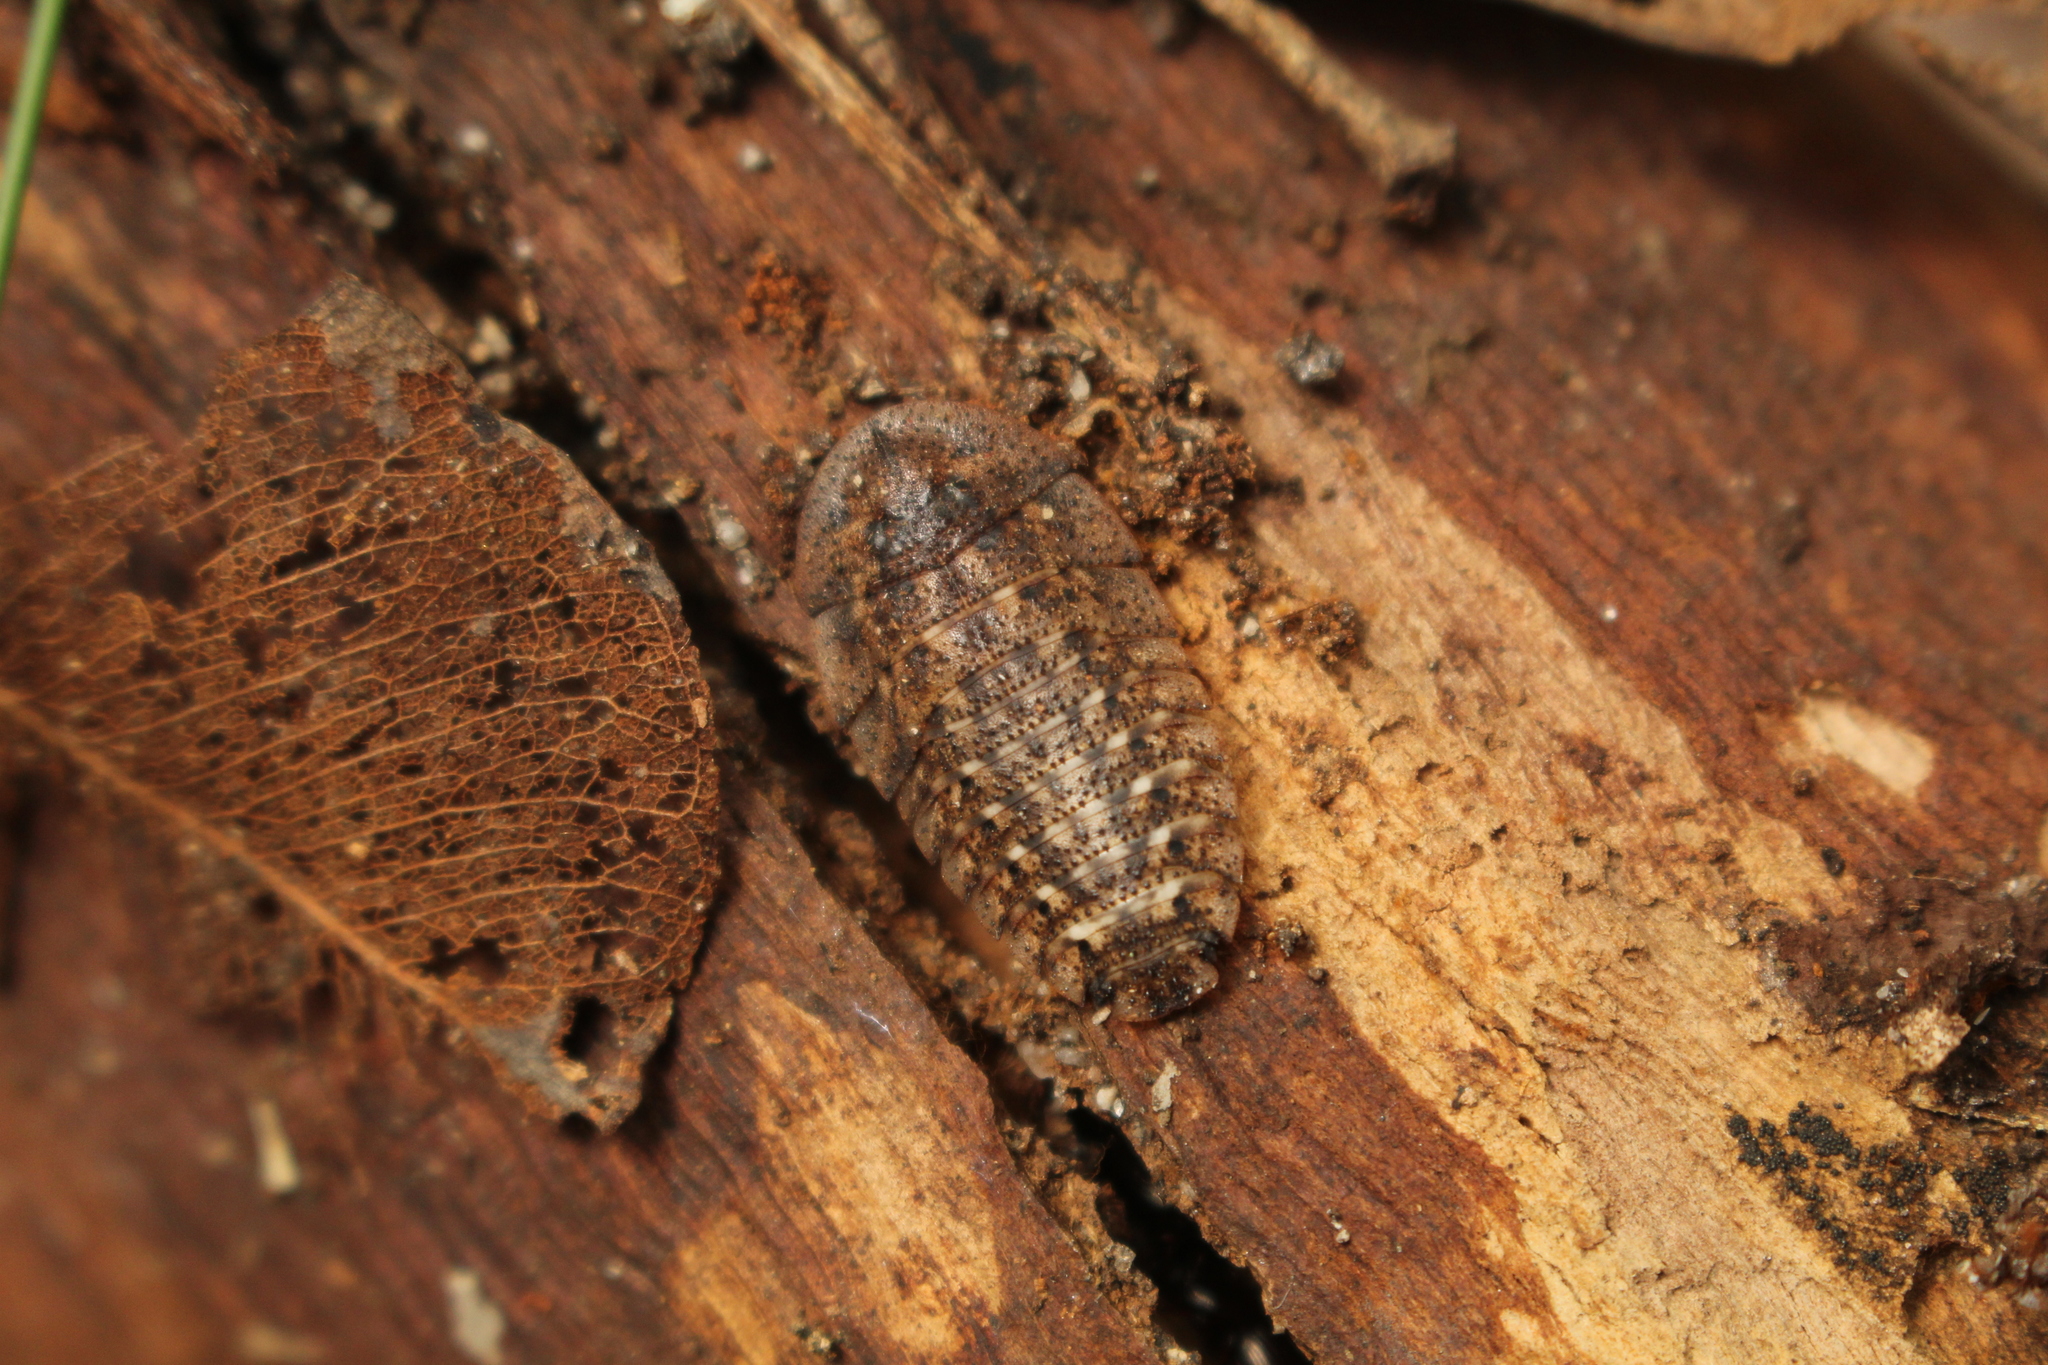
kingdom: Animalia
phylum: Arthropoda
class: Insecta
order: Blattodea
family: Blaberidae
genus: Laxta
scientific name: Laxta rieki
